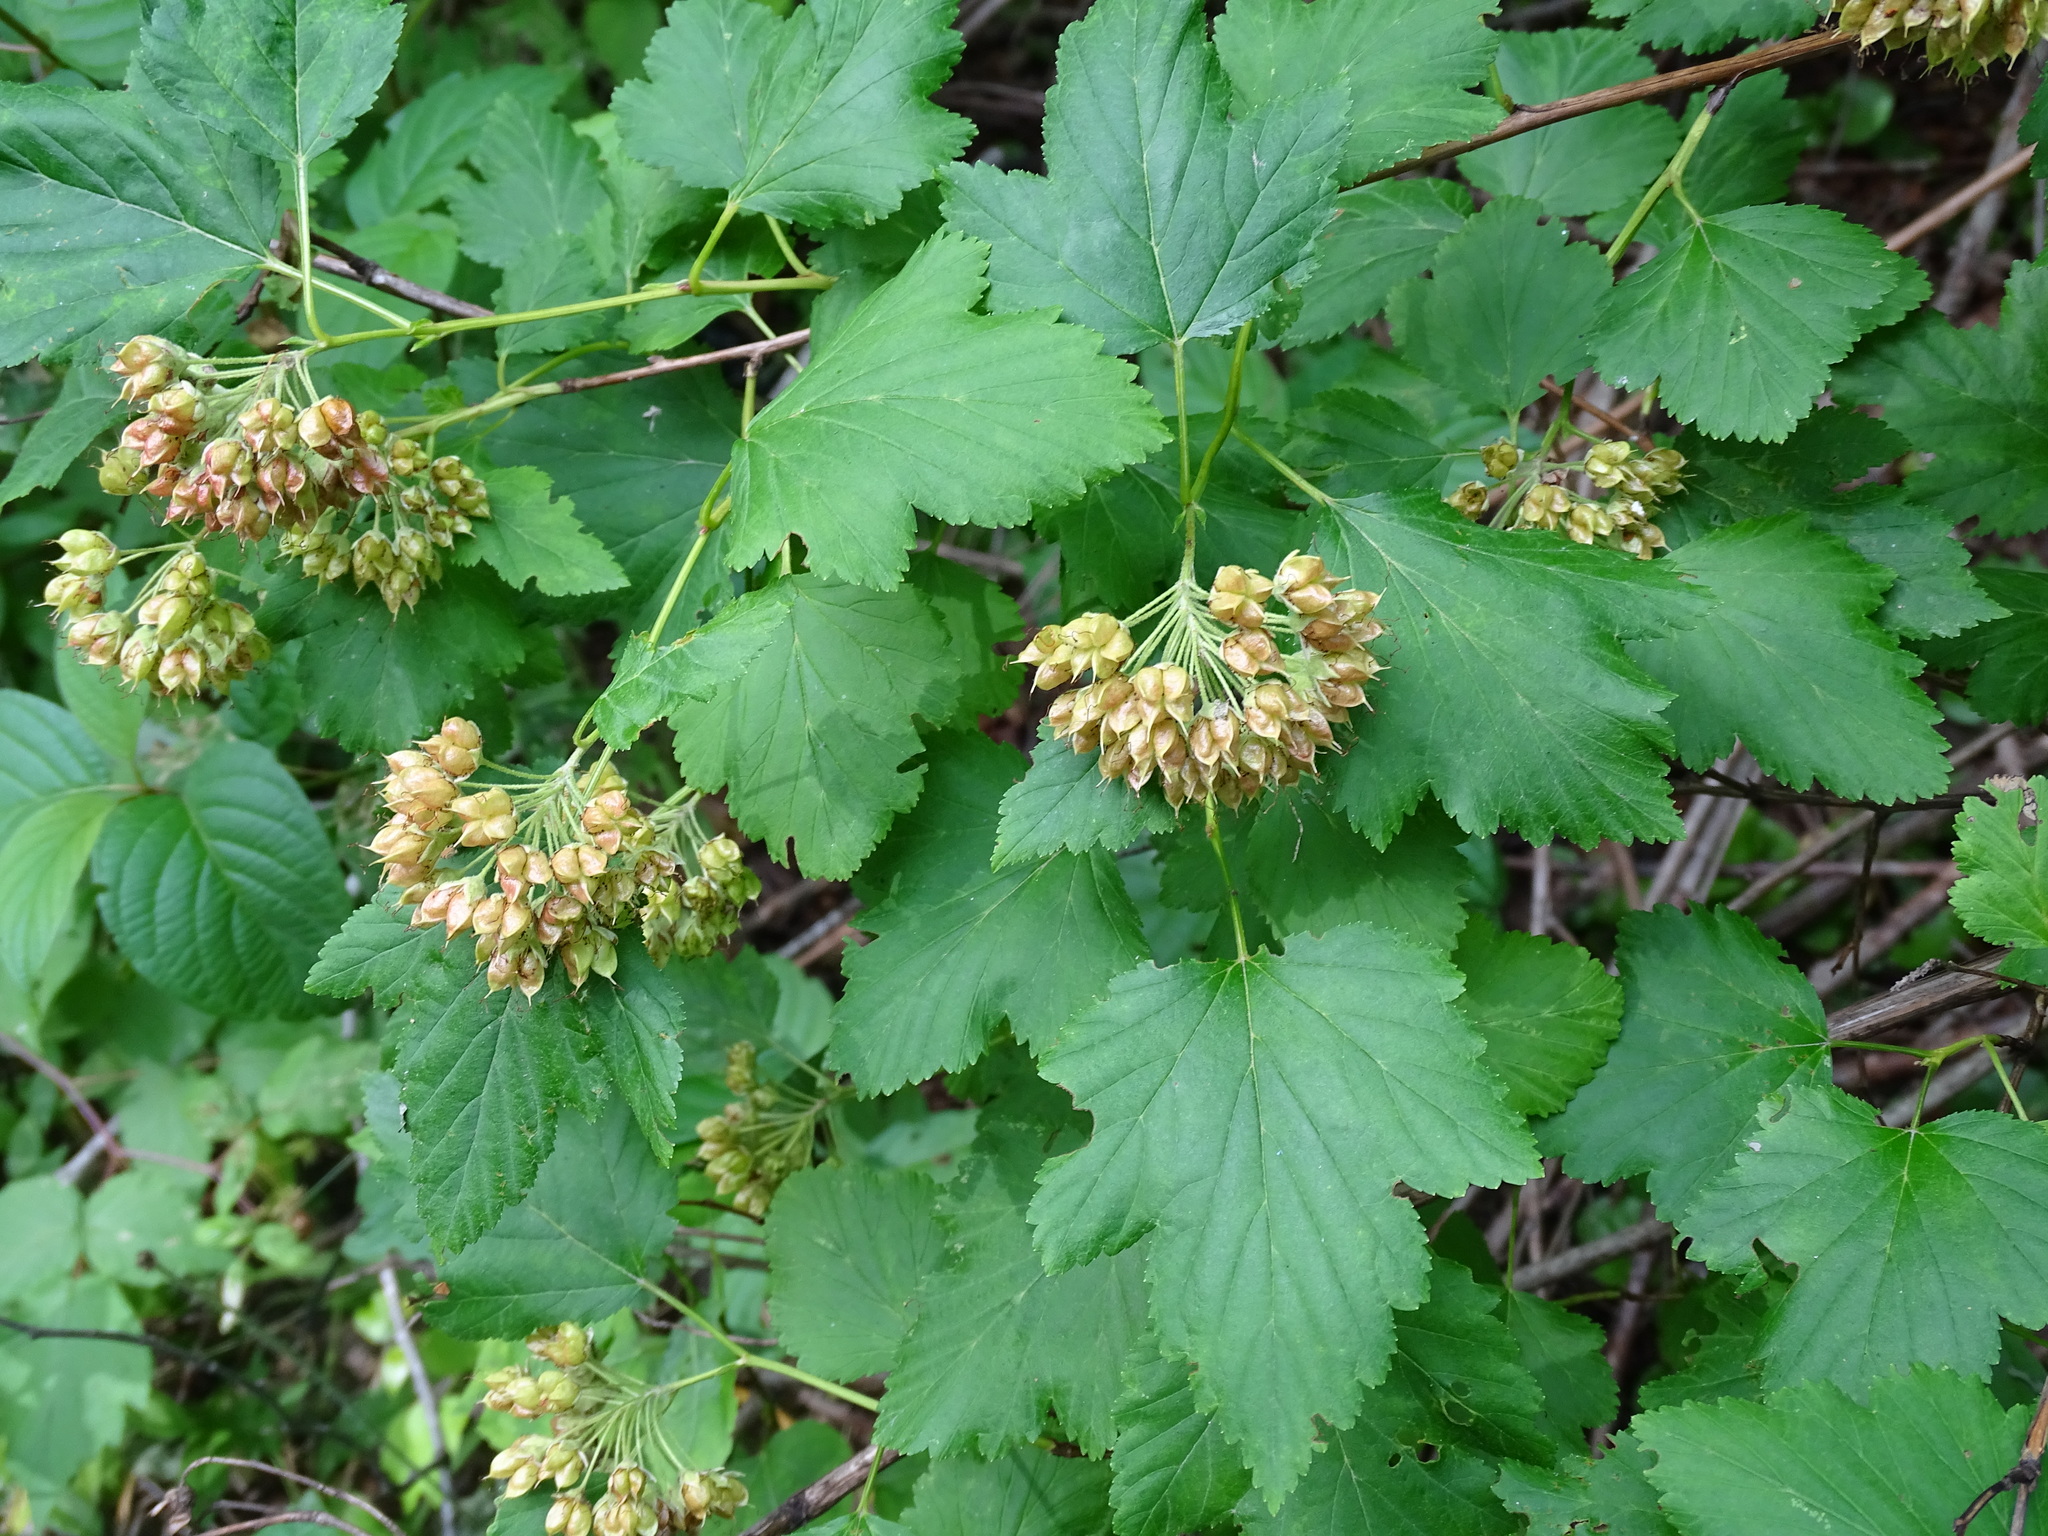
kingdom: Plantae
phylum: Tracheophyta
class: Magnoliopsida
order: Rosales
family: Rosaceae
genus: Physocarpus
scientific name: Physocarpus opulifolius
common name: Ninebark
